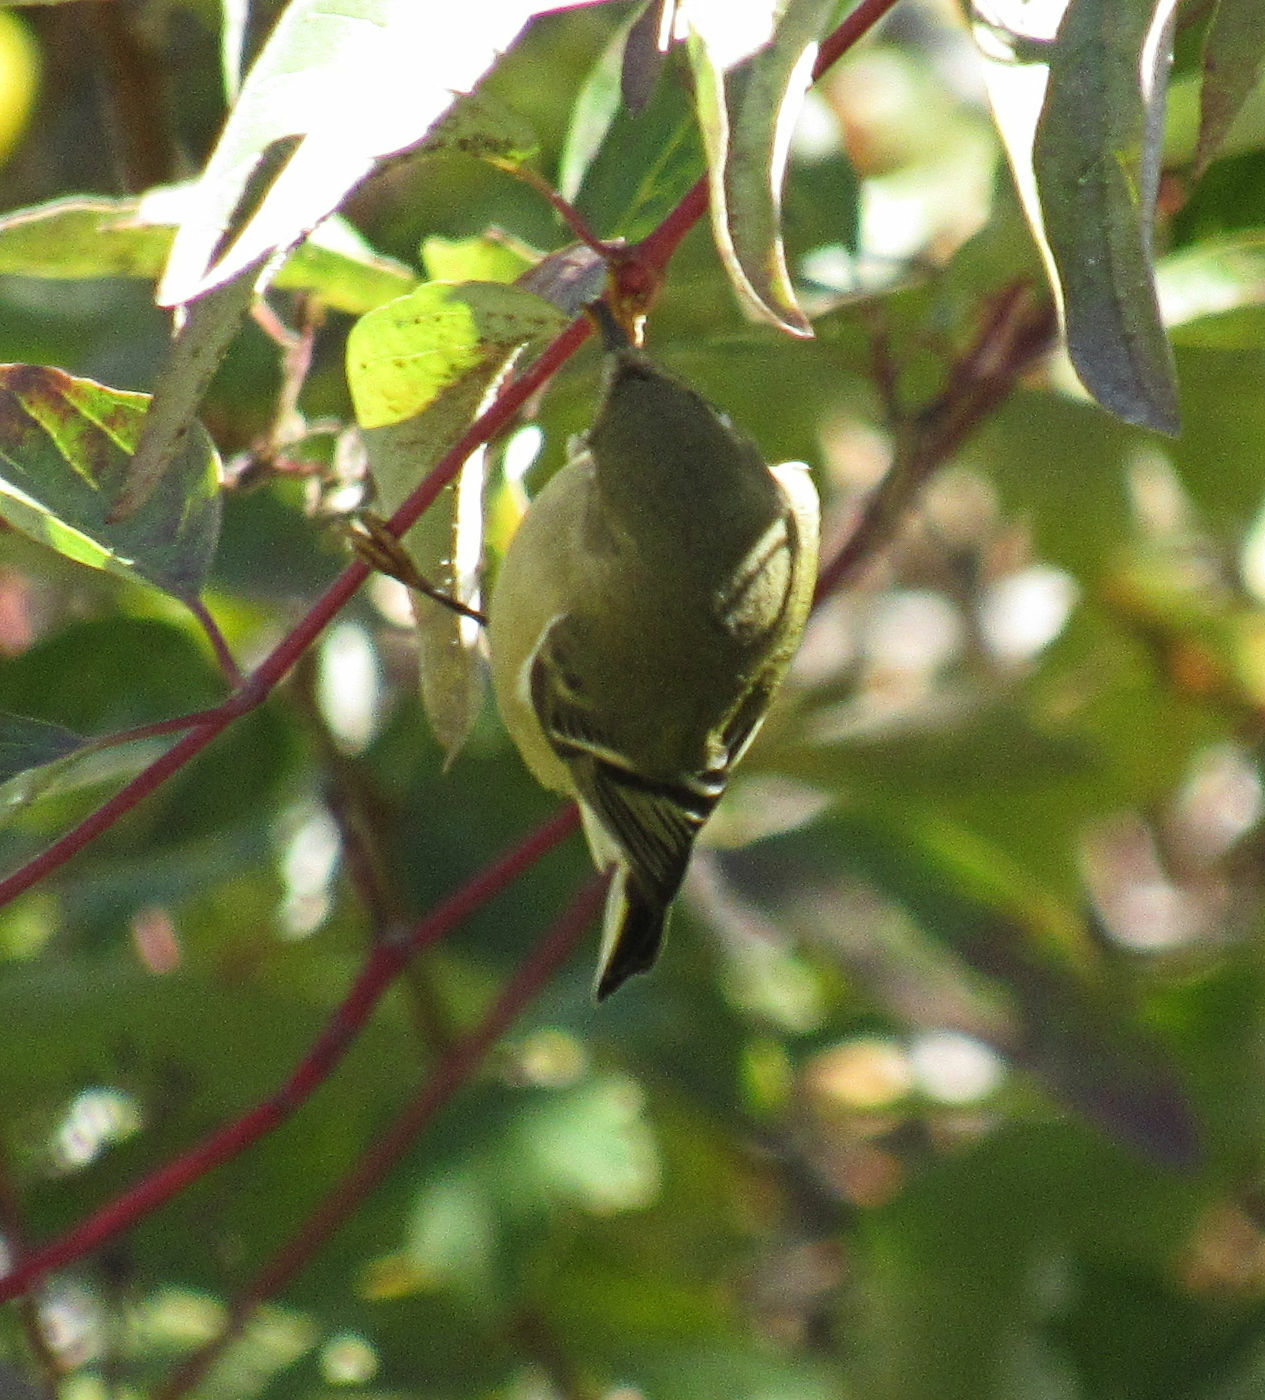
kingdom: Animalia
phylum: Chordata
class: Aves
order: Passeriformes
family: Regulidae
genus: Regulus
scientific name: Regulus calendula
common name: Ruby-crowned kinglet
